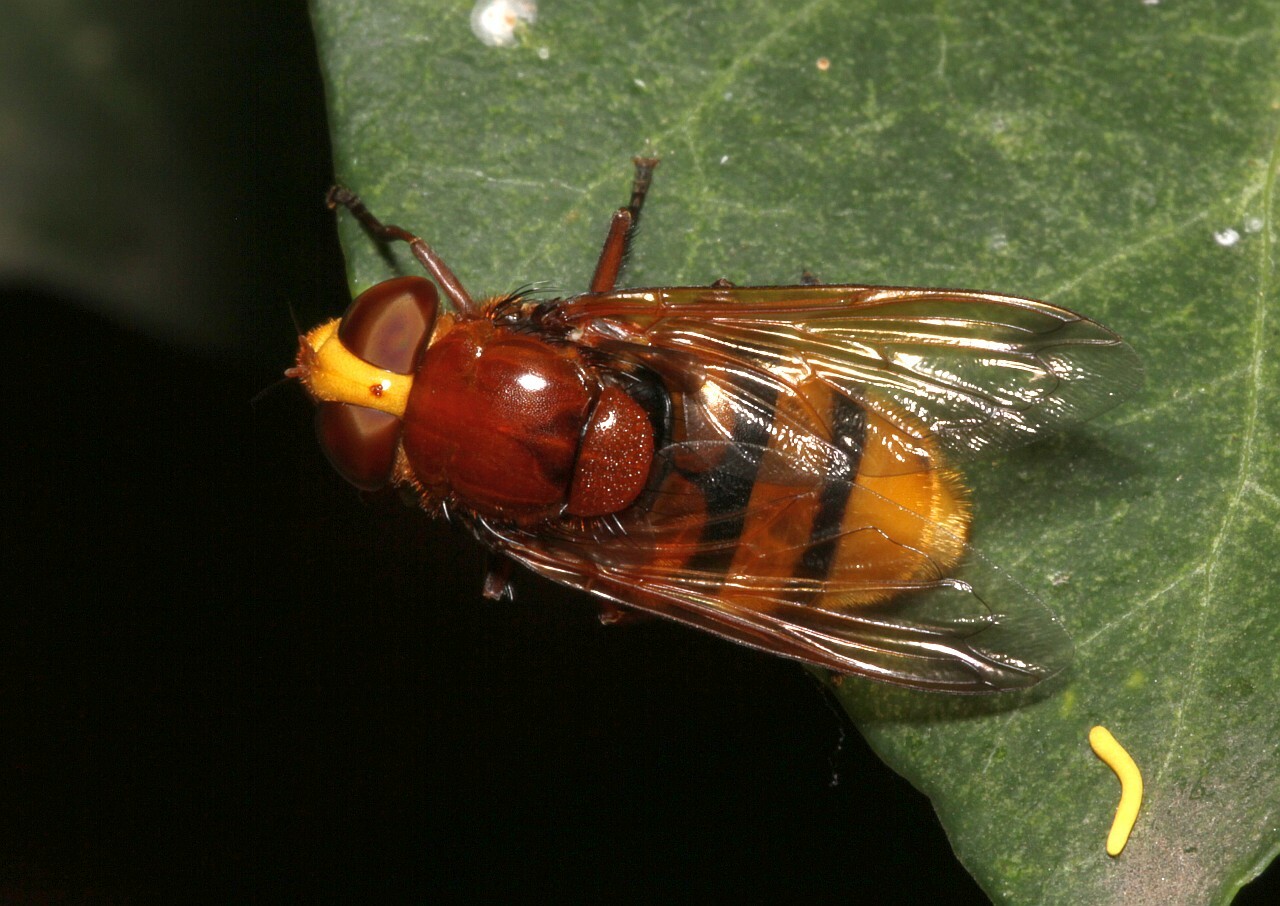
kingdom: Animalia
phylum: Arthropoda
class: Insecta
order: Diptera
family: Syrphidae
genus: Volucella
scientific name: Volucella zonaria
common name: Hornet hoverfly
